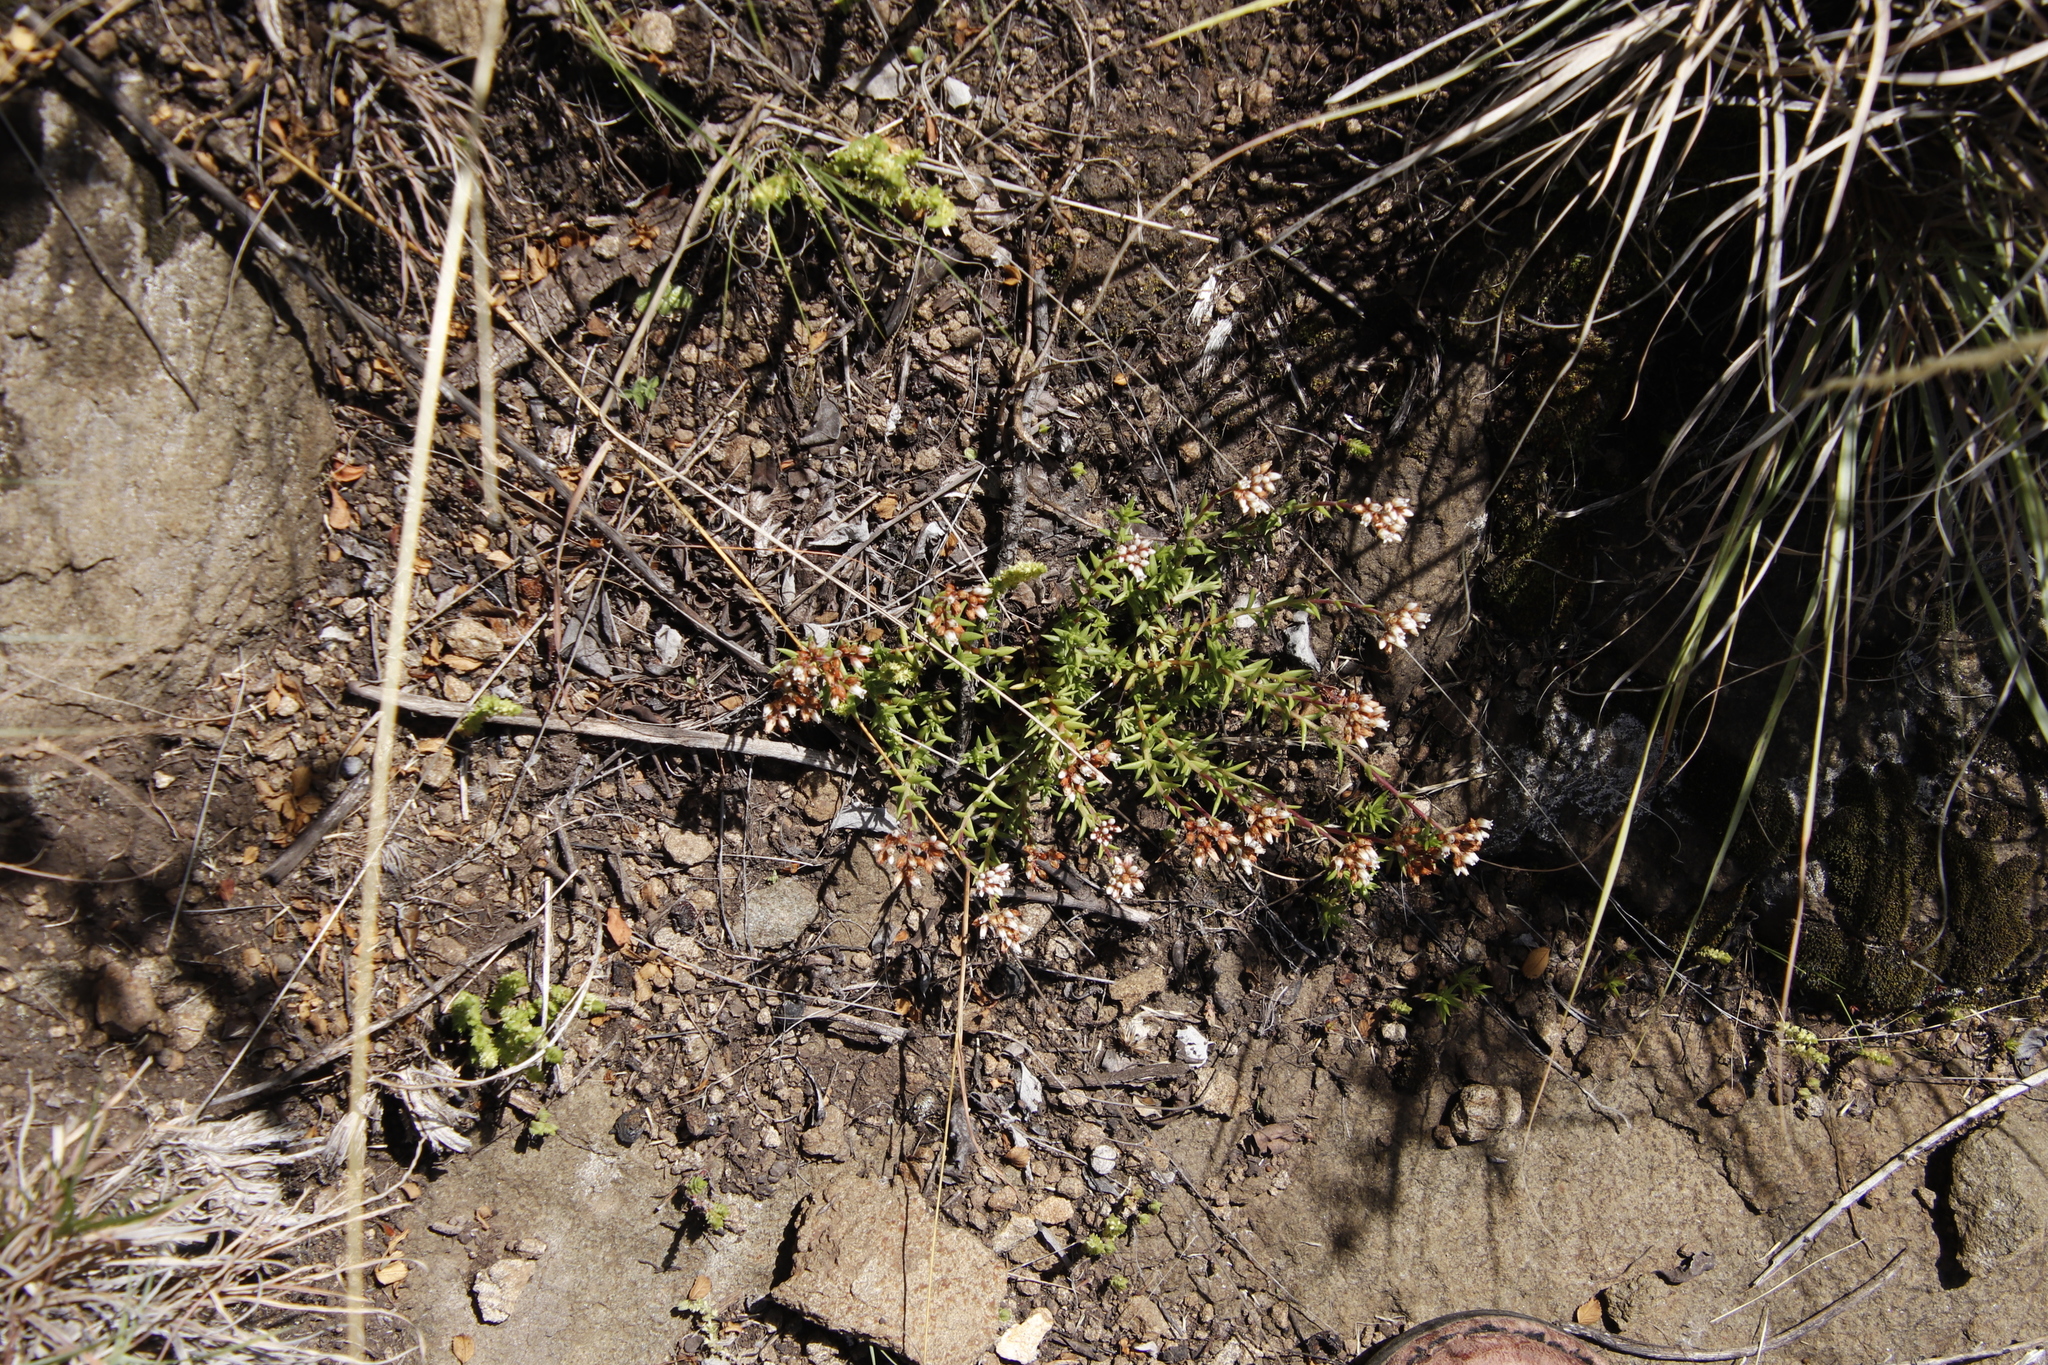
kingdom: Plantae
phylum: Tracheophyta
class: Magnoliopsida
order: Saxifragales
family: Crassulaceae
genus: Crassula
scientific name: Crassula dependens
